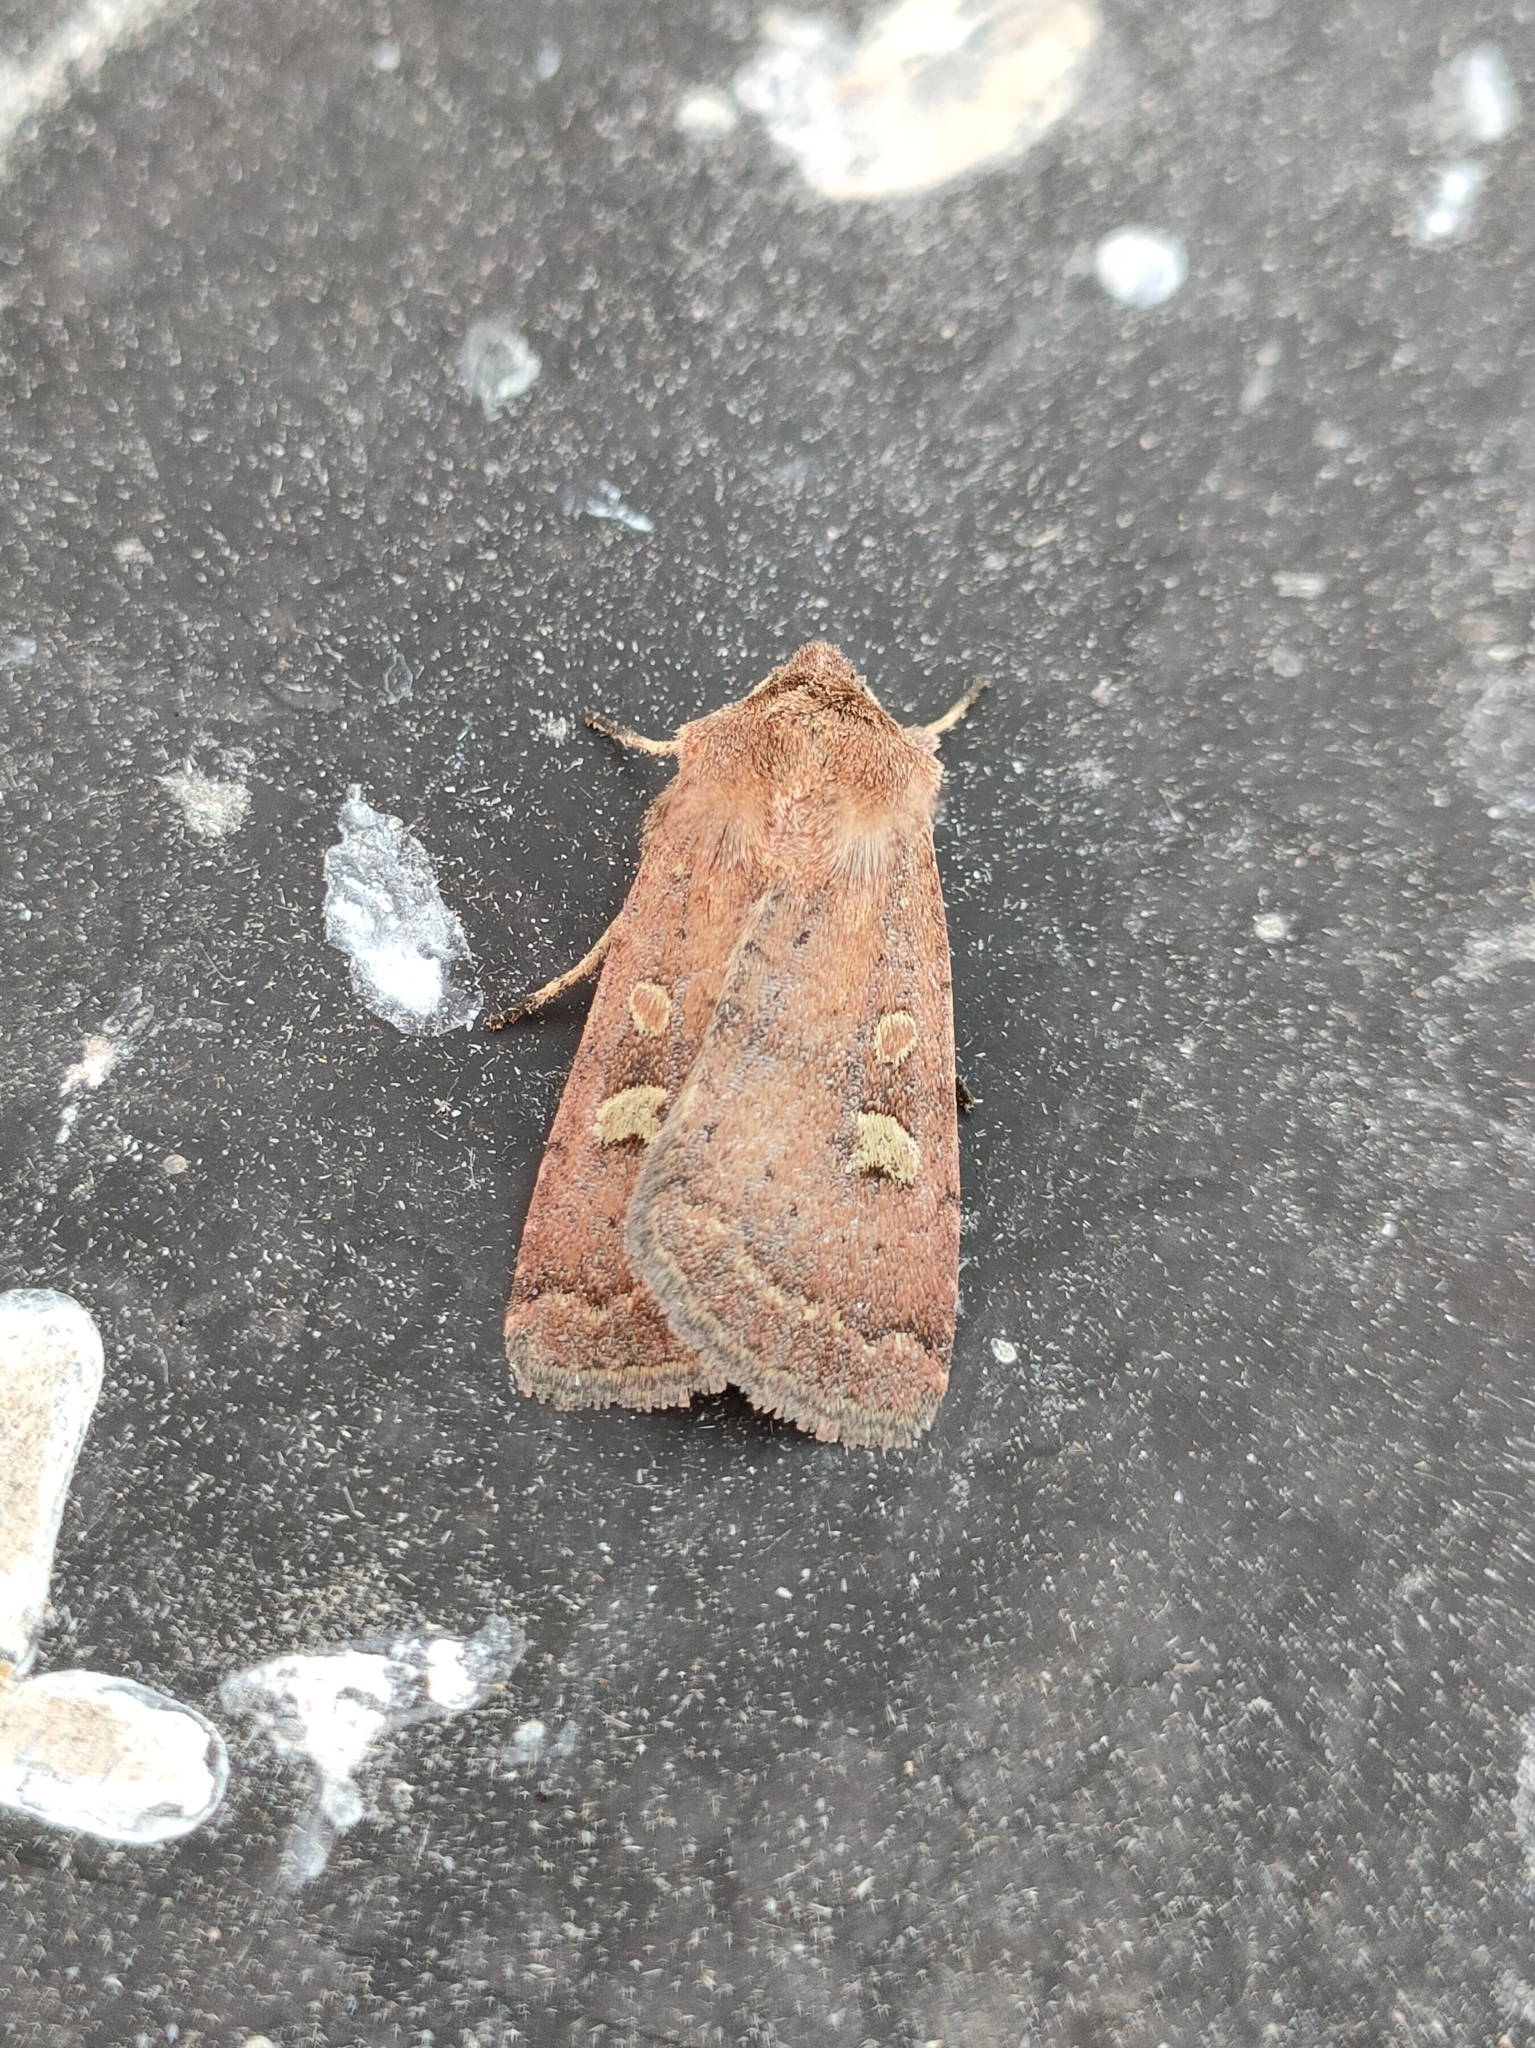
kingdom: Animalia
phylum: Arthropoda
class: Insecta
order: Lepidoptera
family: Noctuidae
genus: Xestia
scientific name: Xestia xanthographa
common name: Square-spot rustic
